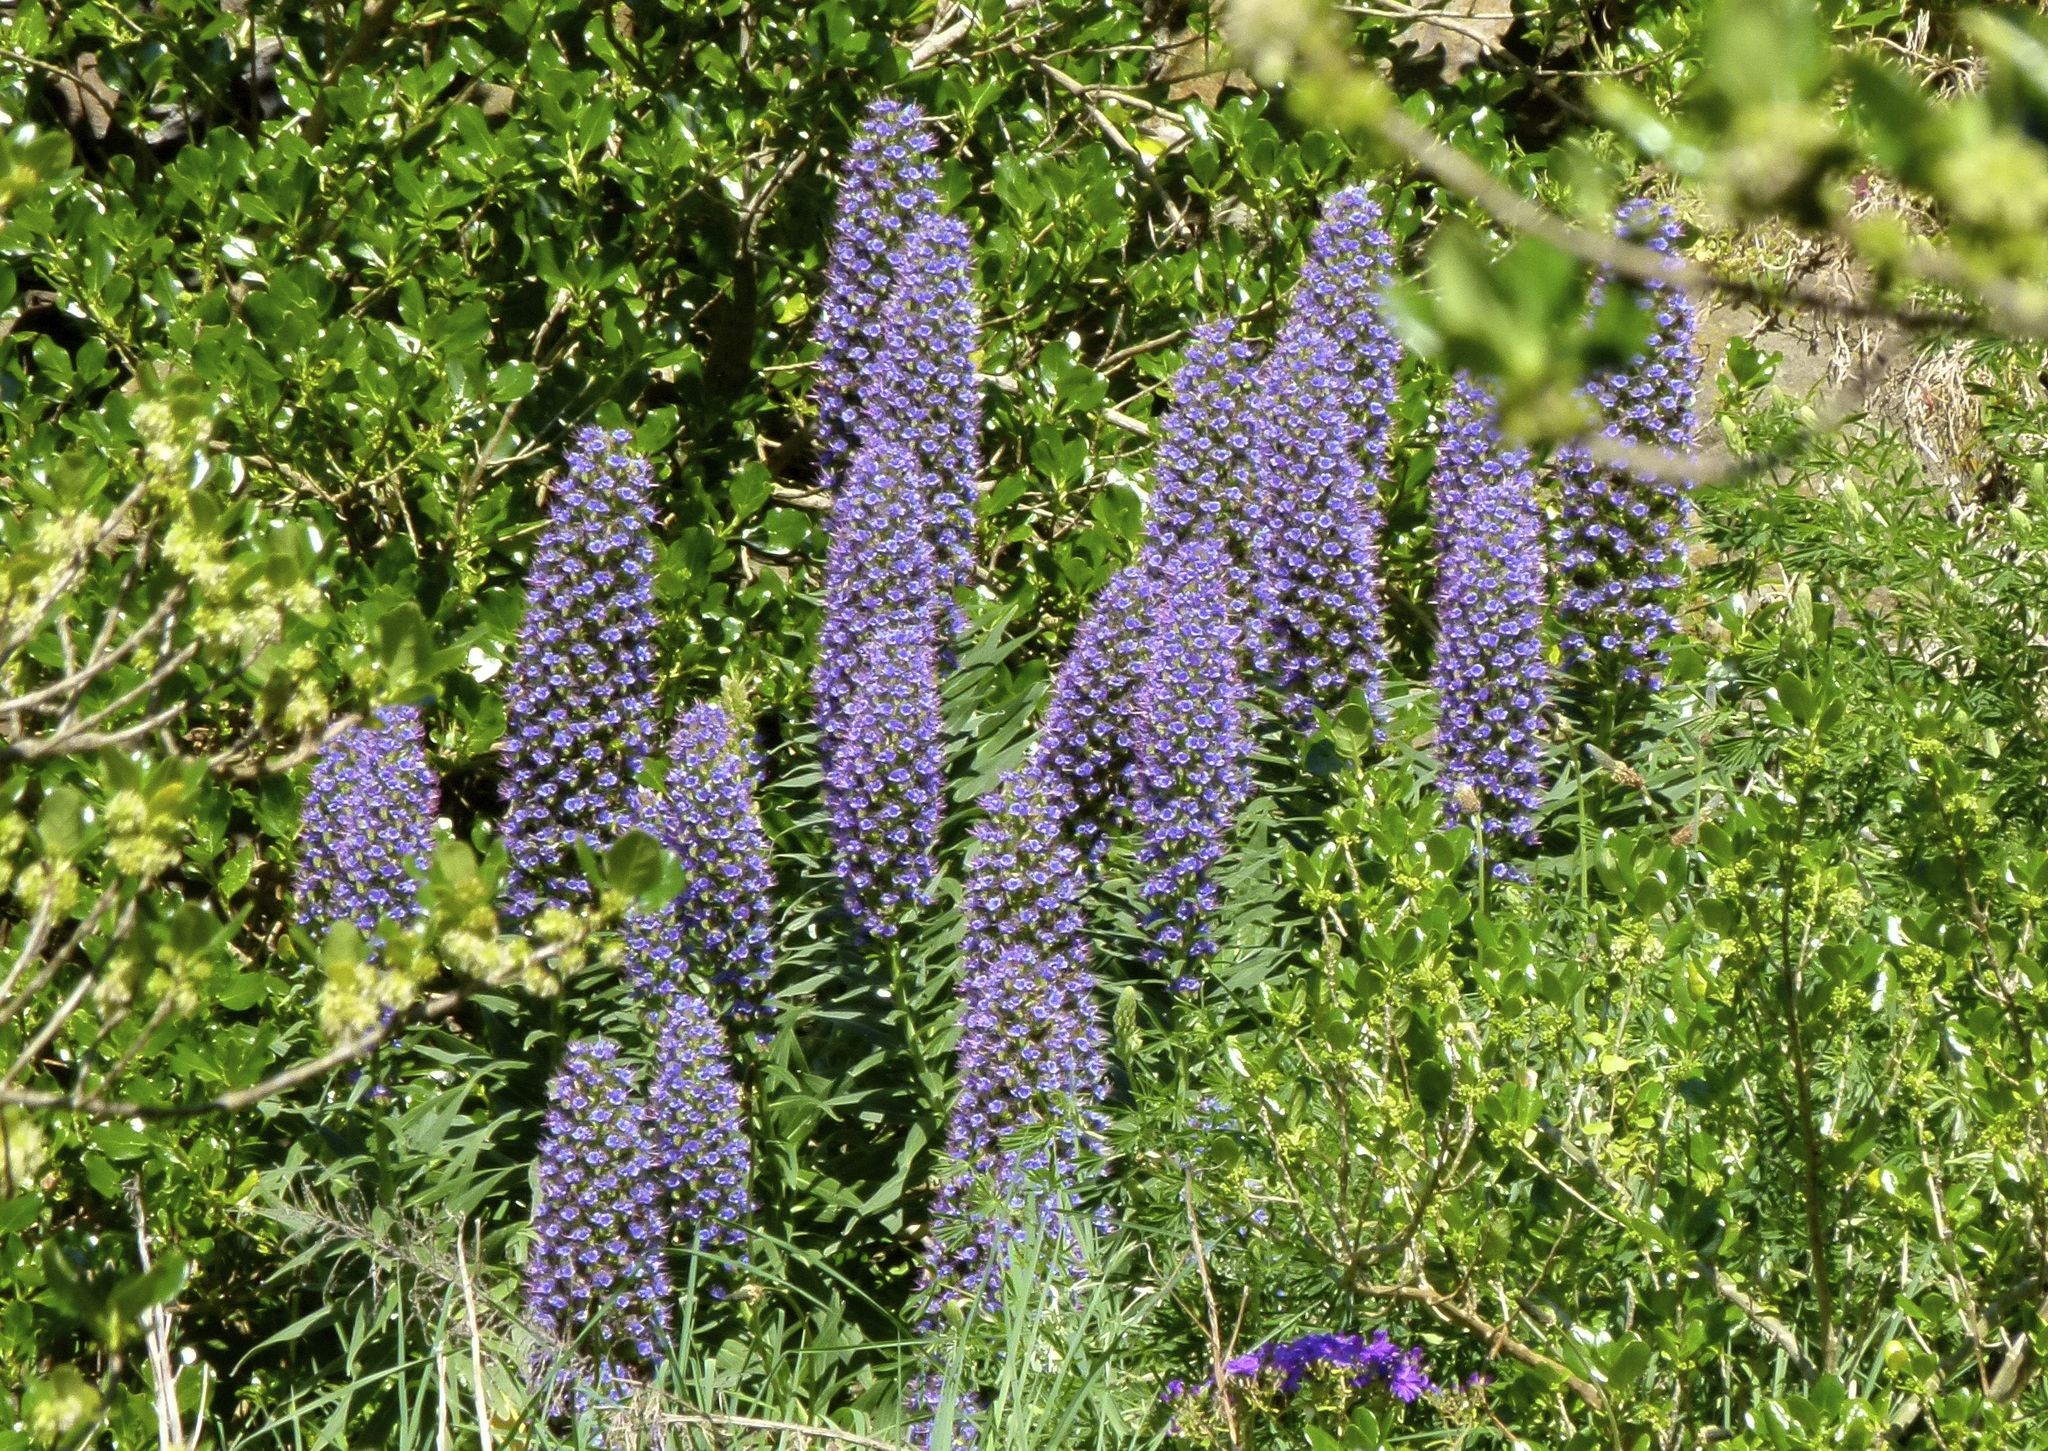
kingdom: Plantae
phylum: Tracheophyta
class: Magnoliopsida
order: Boraginales
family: Boraginaceae
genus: Echium
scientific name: Echium candicans
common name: Pride of madeira
